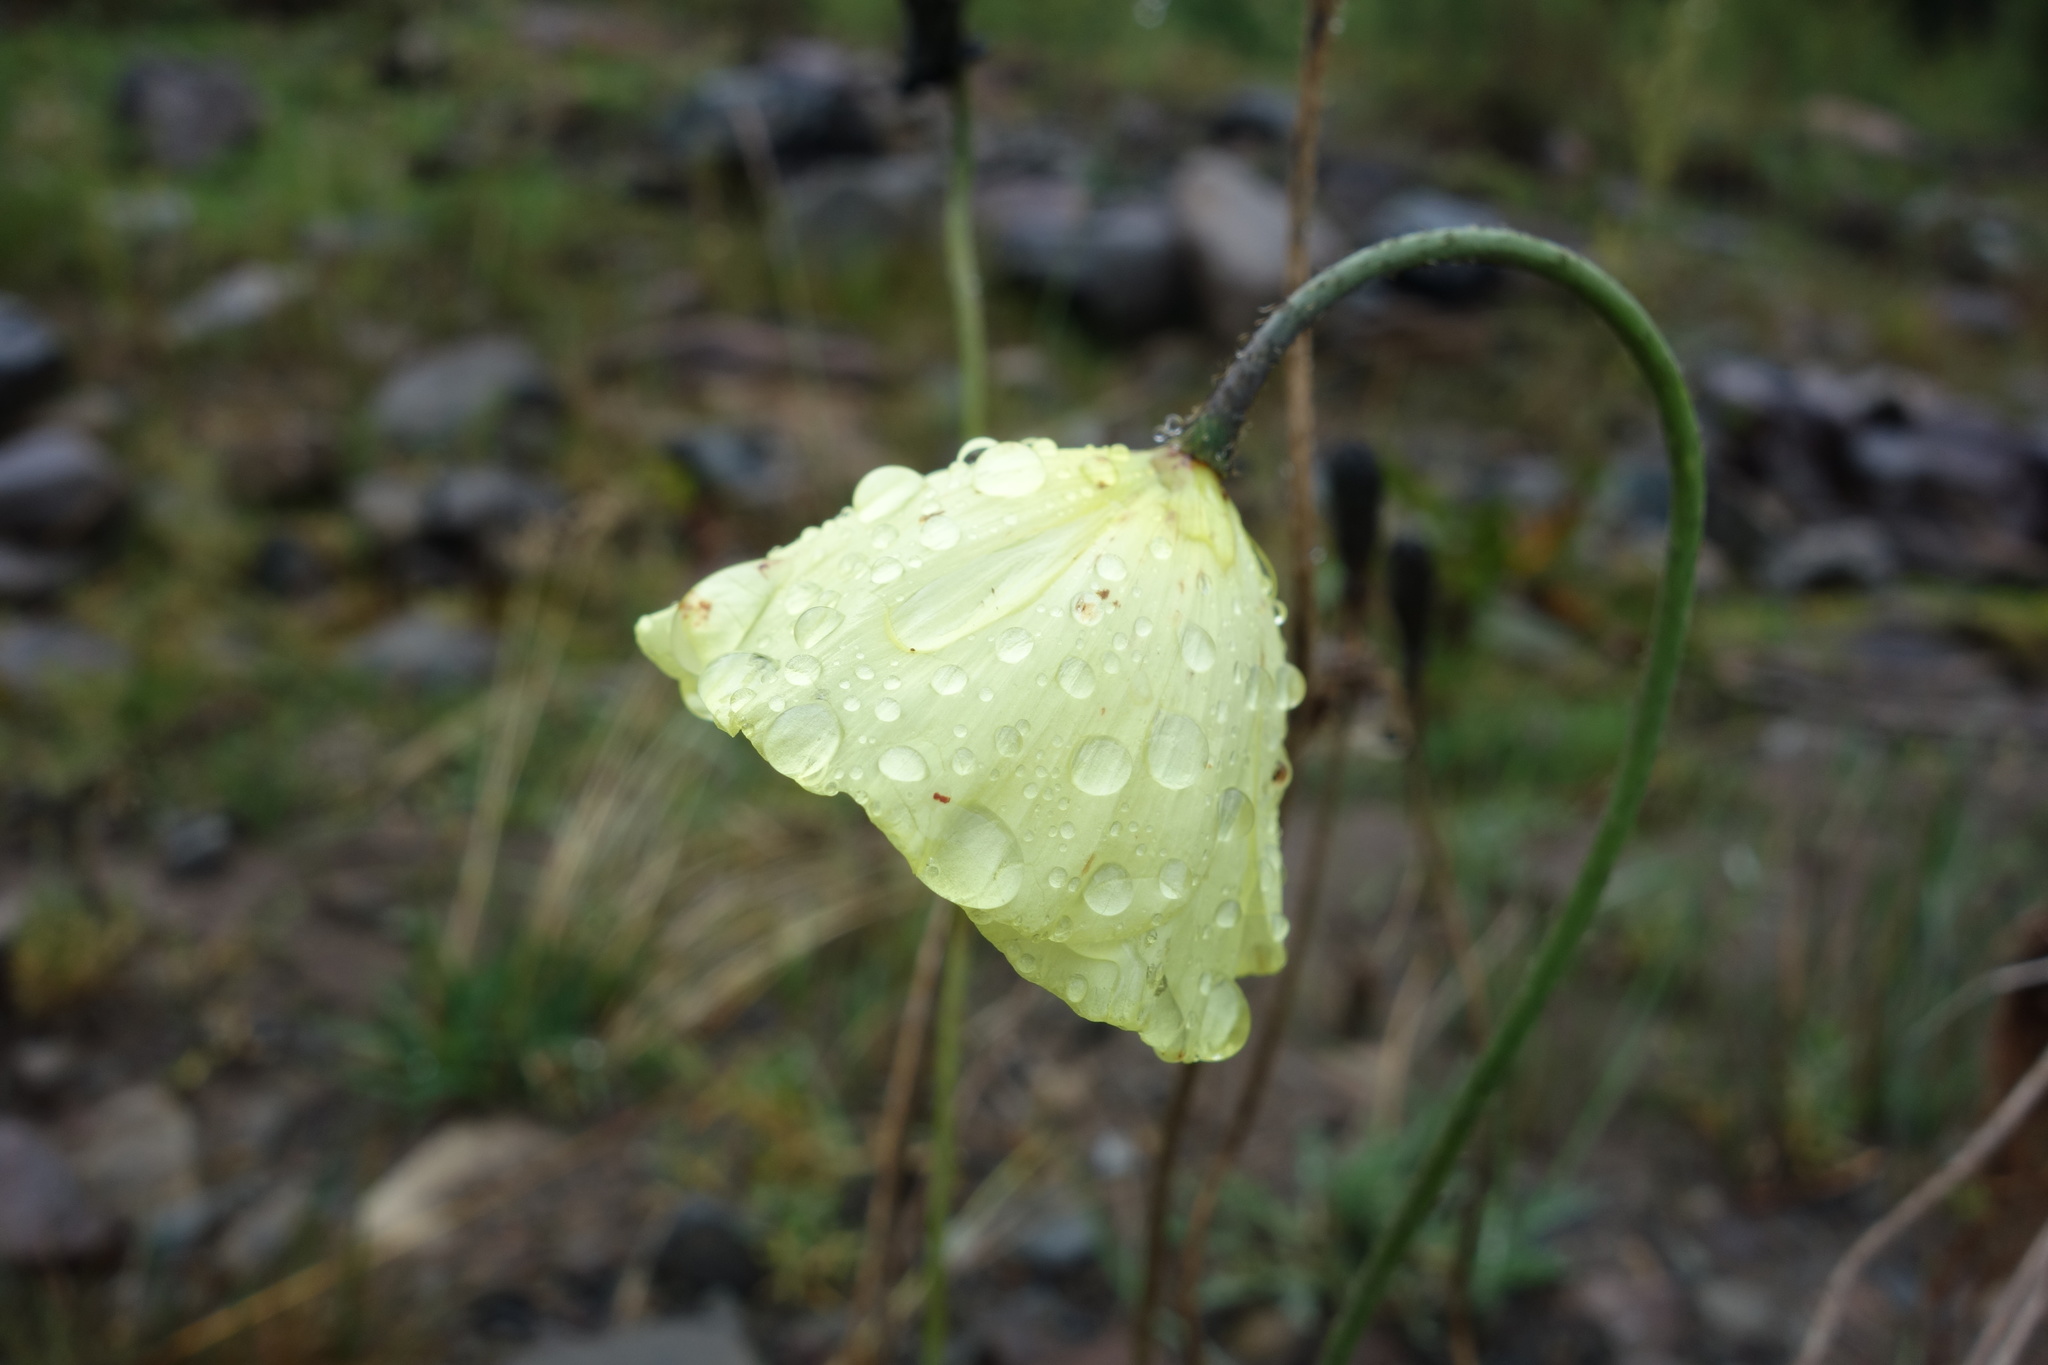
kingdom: Plantae
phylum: Tracheophyta
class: Magnoliopsida
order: Ranunculales
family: Papaveraceae
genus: Papaver
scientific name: Papaver canescens
